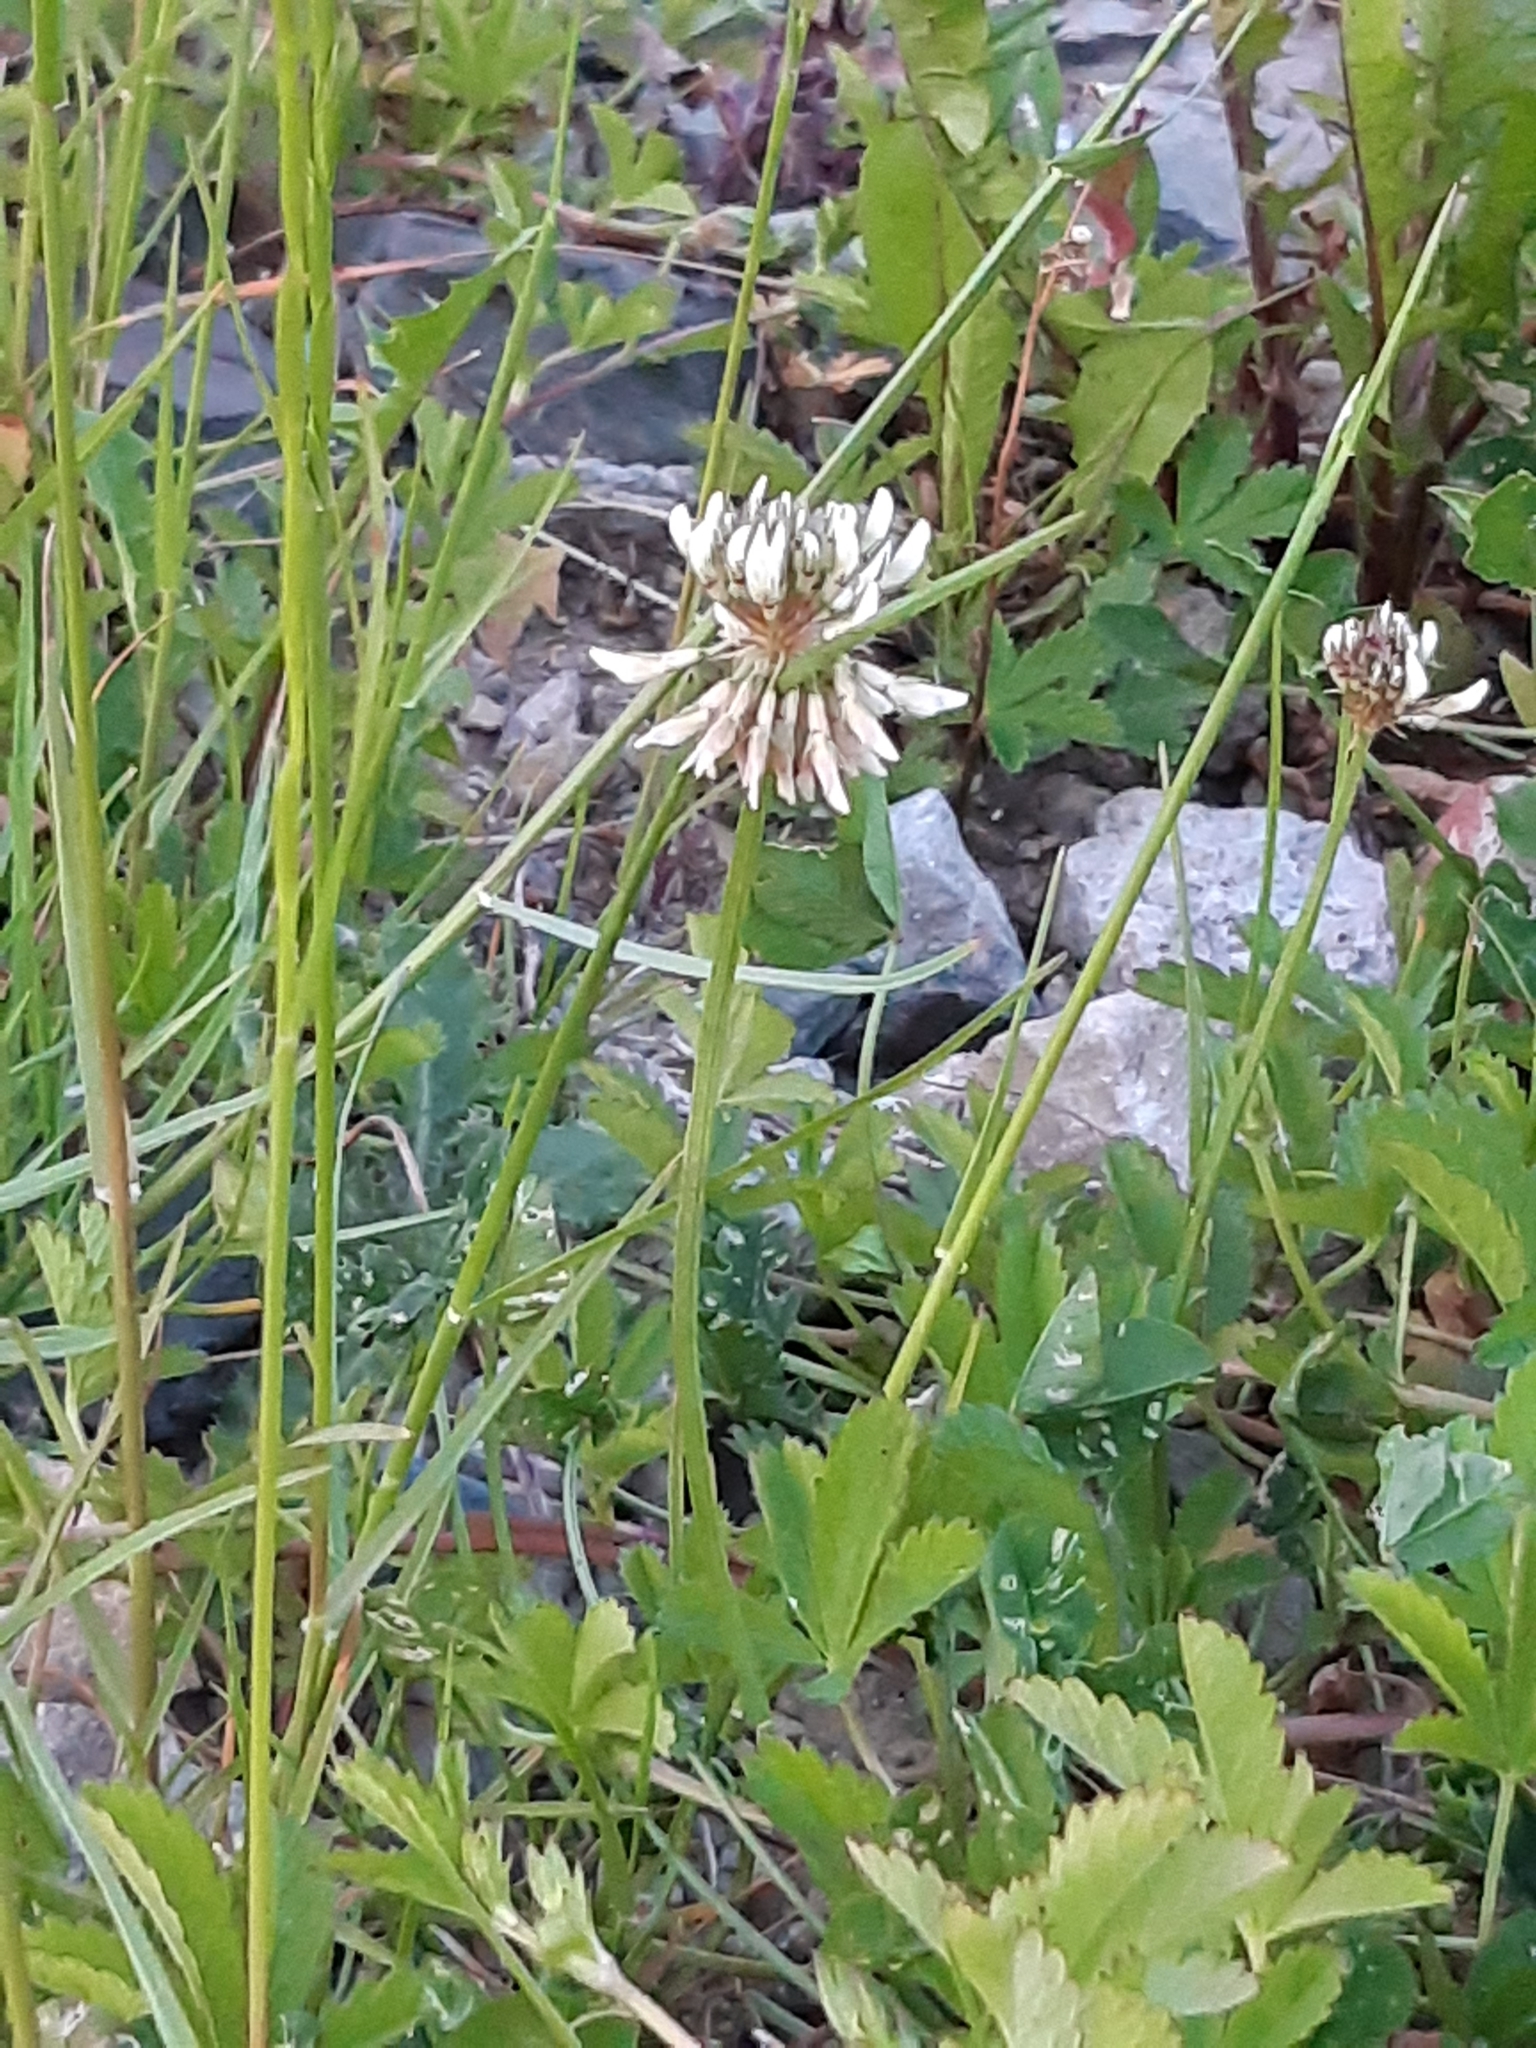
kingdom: Plantae
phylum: Tracheophyta
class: Magnoliopsida
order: Fabales
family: Fabaceae
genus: Trifolium
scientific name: Trifolium repens
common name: White clover
